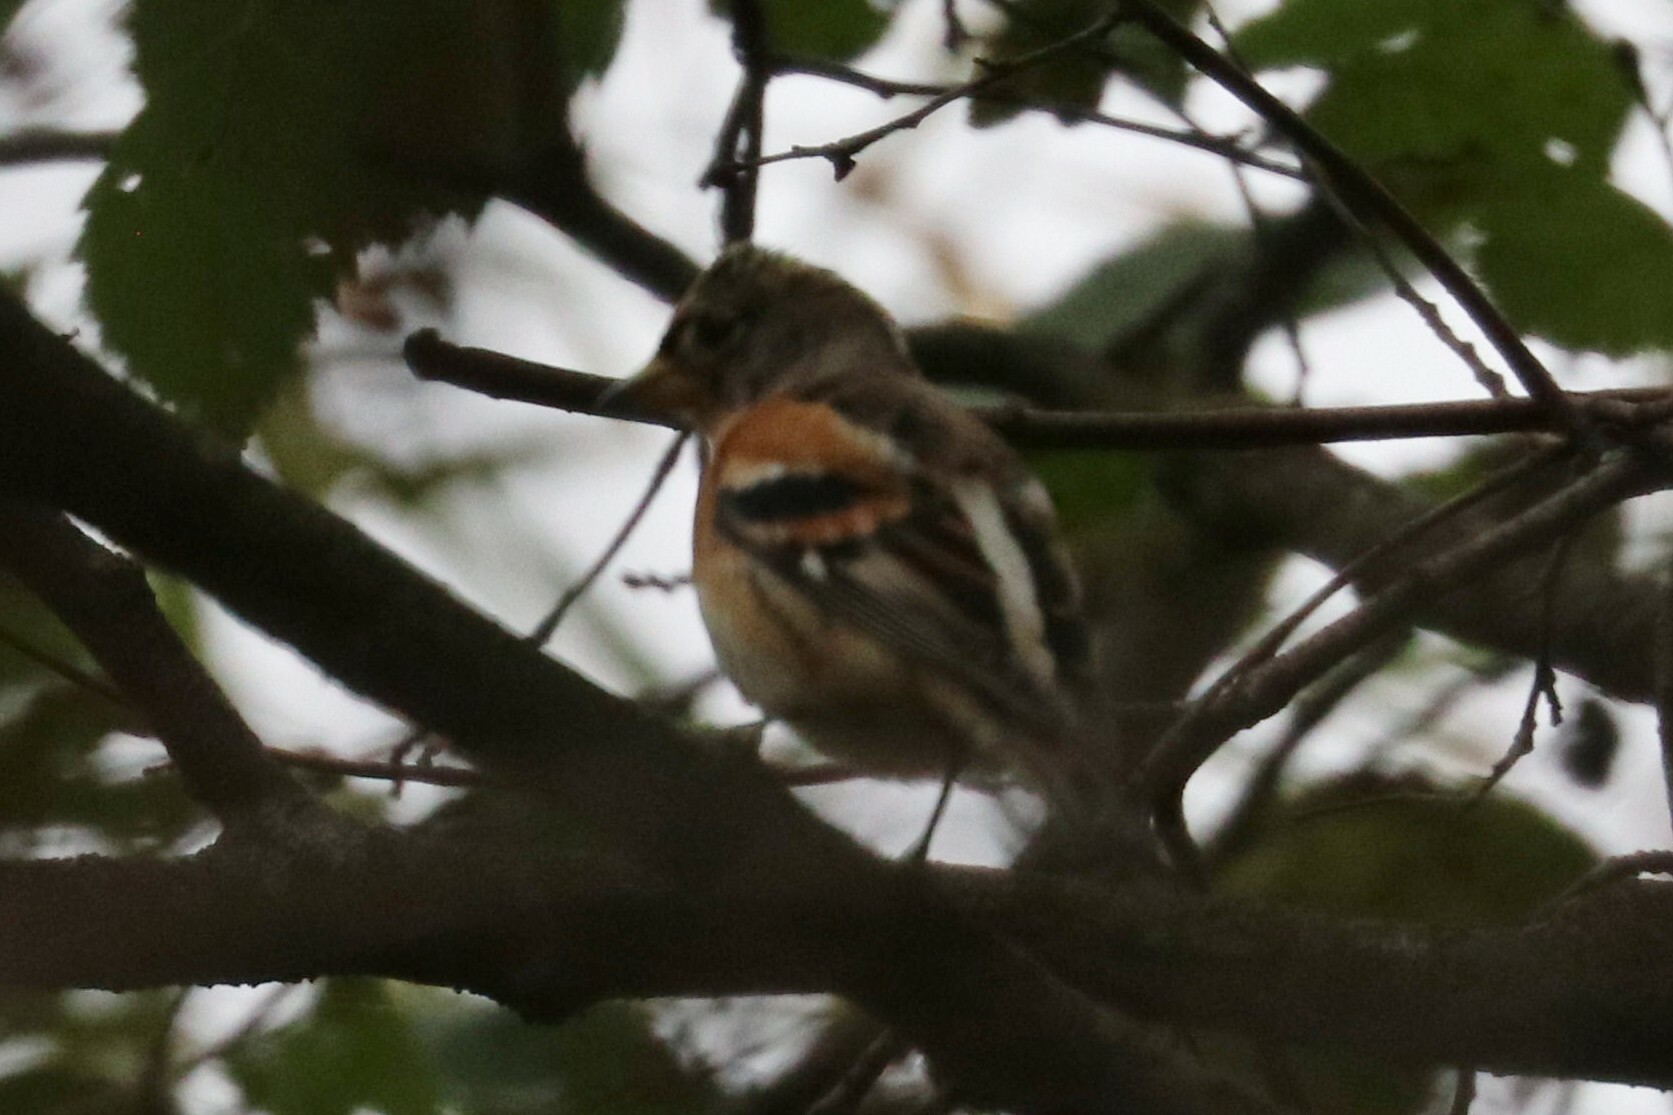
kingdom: Animalia
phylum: Chordata
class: Aves
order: Passeriformes
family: Fringillidae
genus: Fringilla
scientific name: Fringilla montifringilla
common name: Brambling
